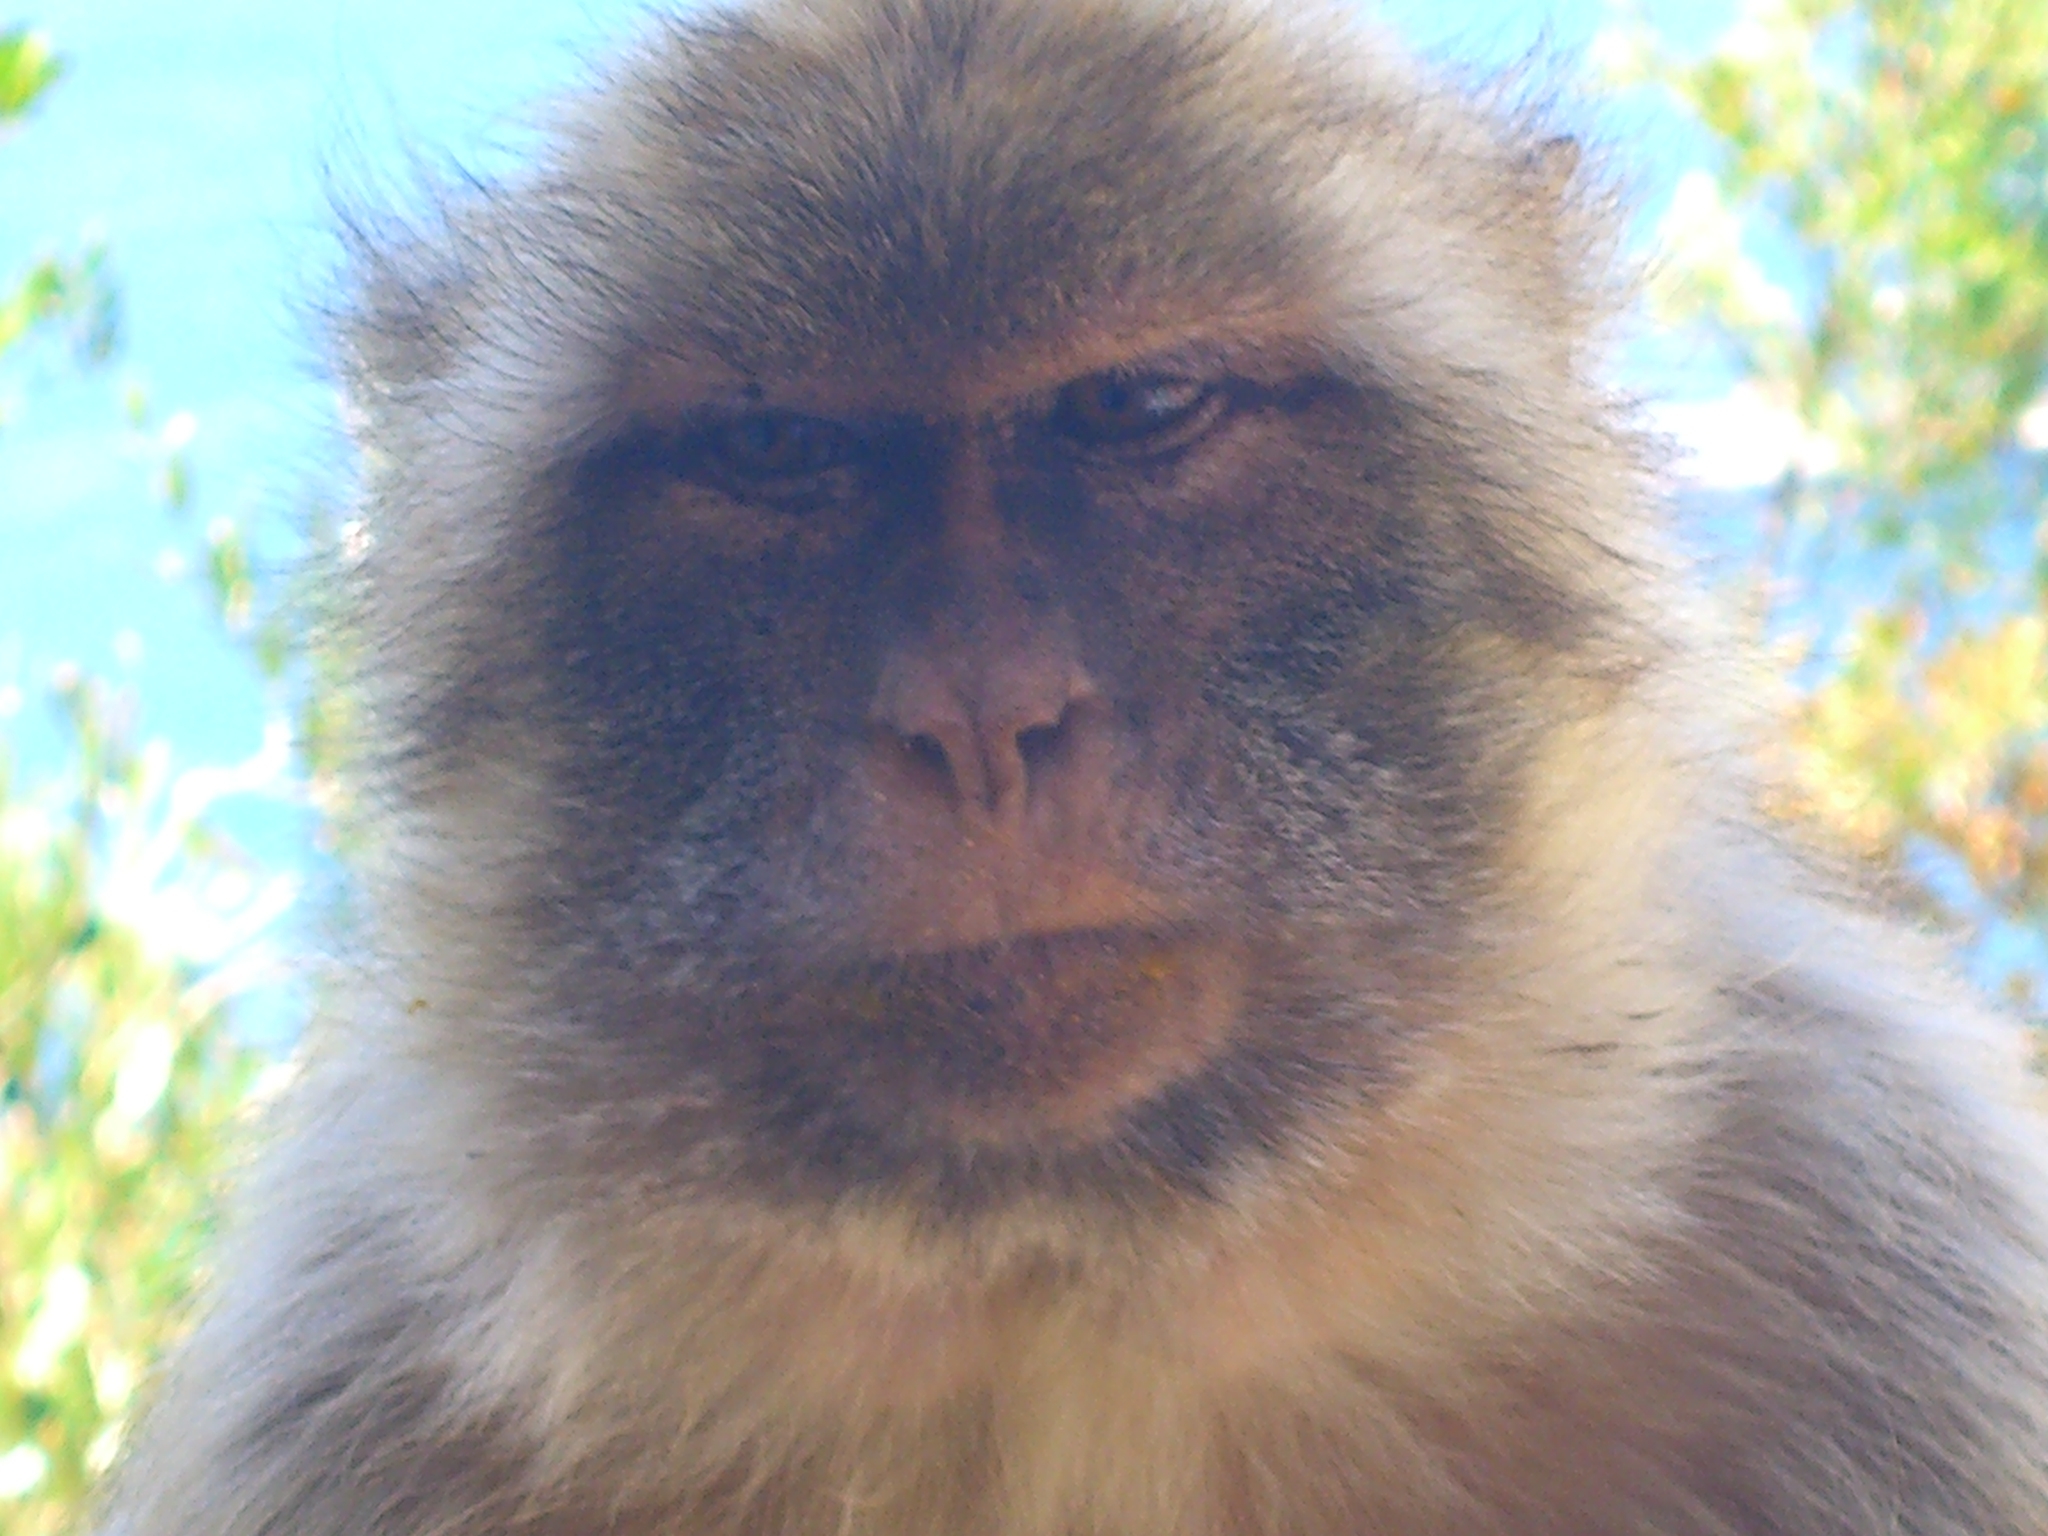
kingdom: Animalia
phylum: Chordata
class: Mammalia
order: Primates
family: Cercopithecidae
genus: Macaca
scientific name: Macaca sylvanus
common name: Barbary macaque
